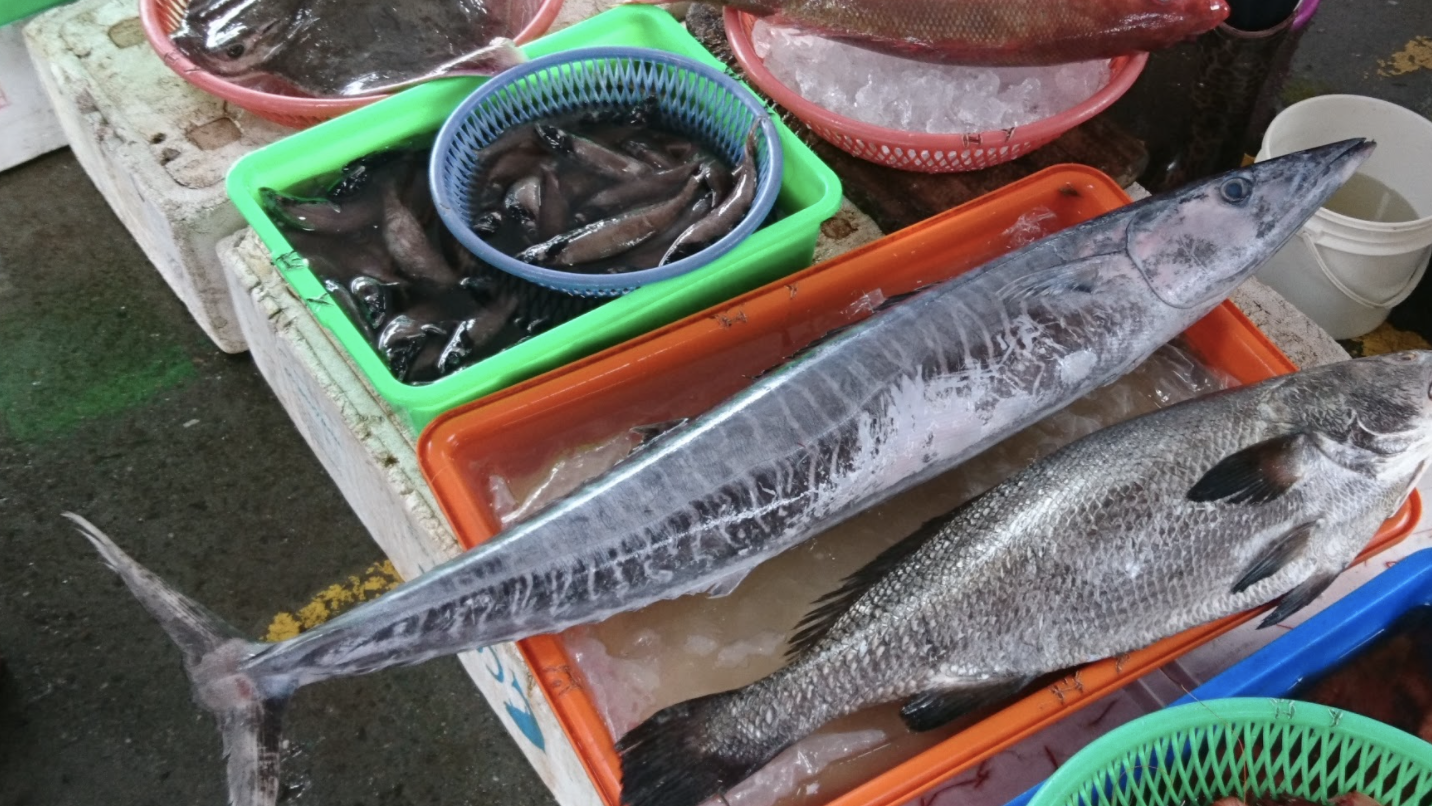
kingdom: Animalia
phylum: Chordata
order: Perciformes
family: Scombridae
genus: Acanthocybium
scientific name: Acanthocybium solandri
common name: Wahoo
